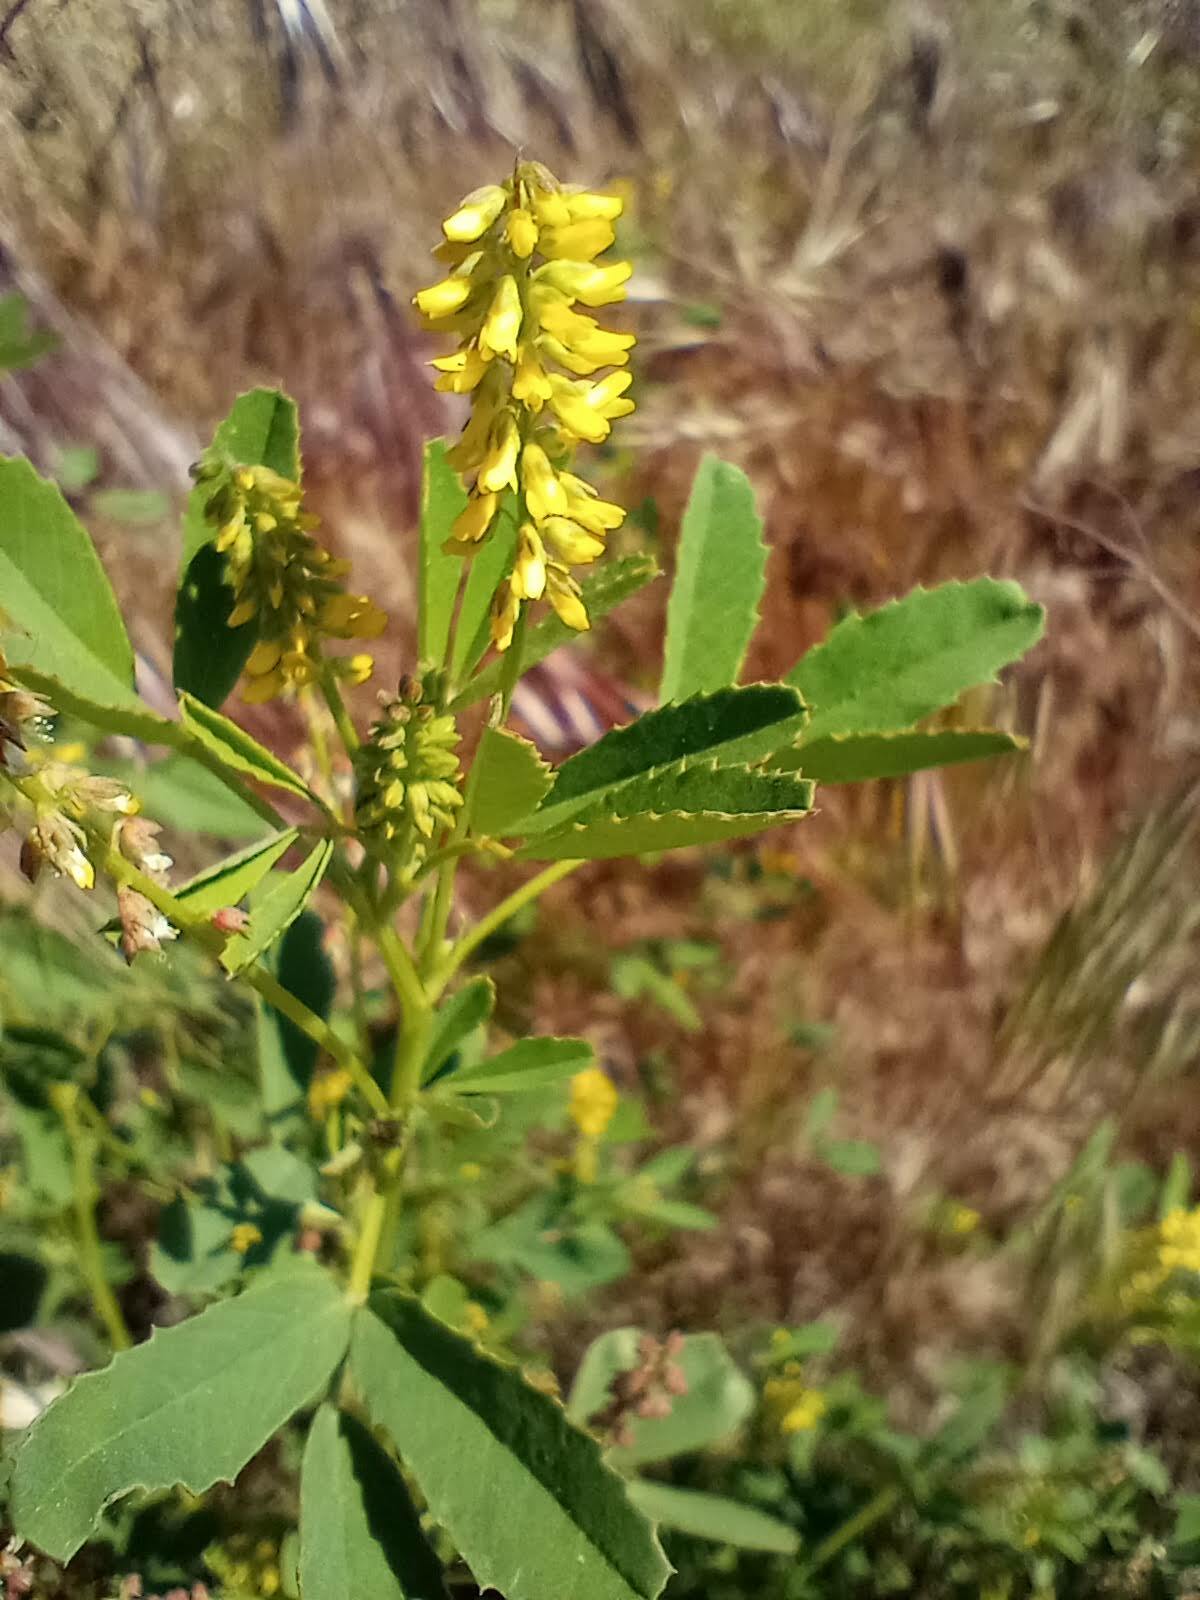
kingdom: Plantae
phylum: Tracheophyta
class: Magnoliopsida
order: Fabales
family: Fabaceae
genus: Melilotus
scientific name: Melilotus indicus
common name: Small melilot
